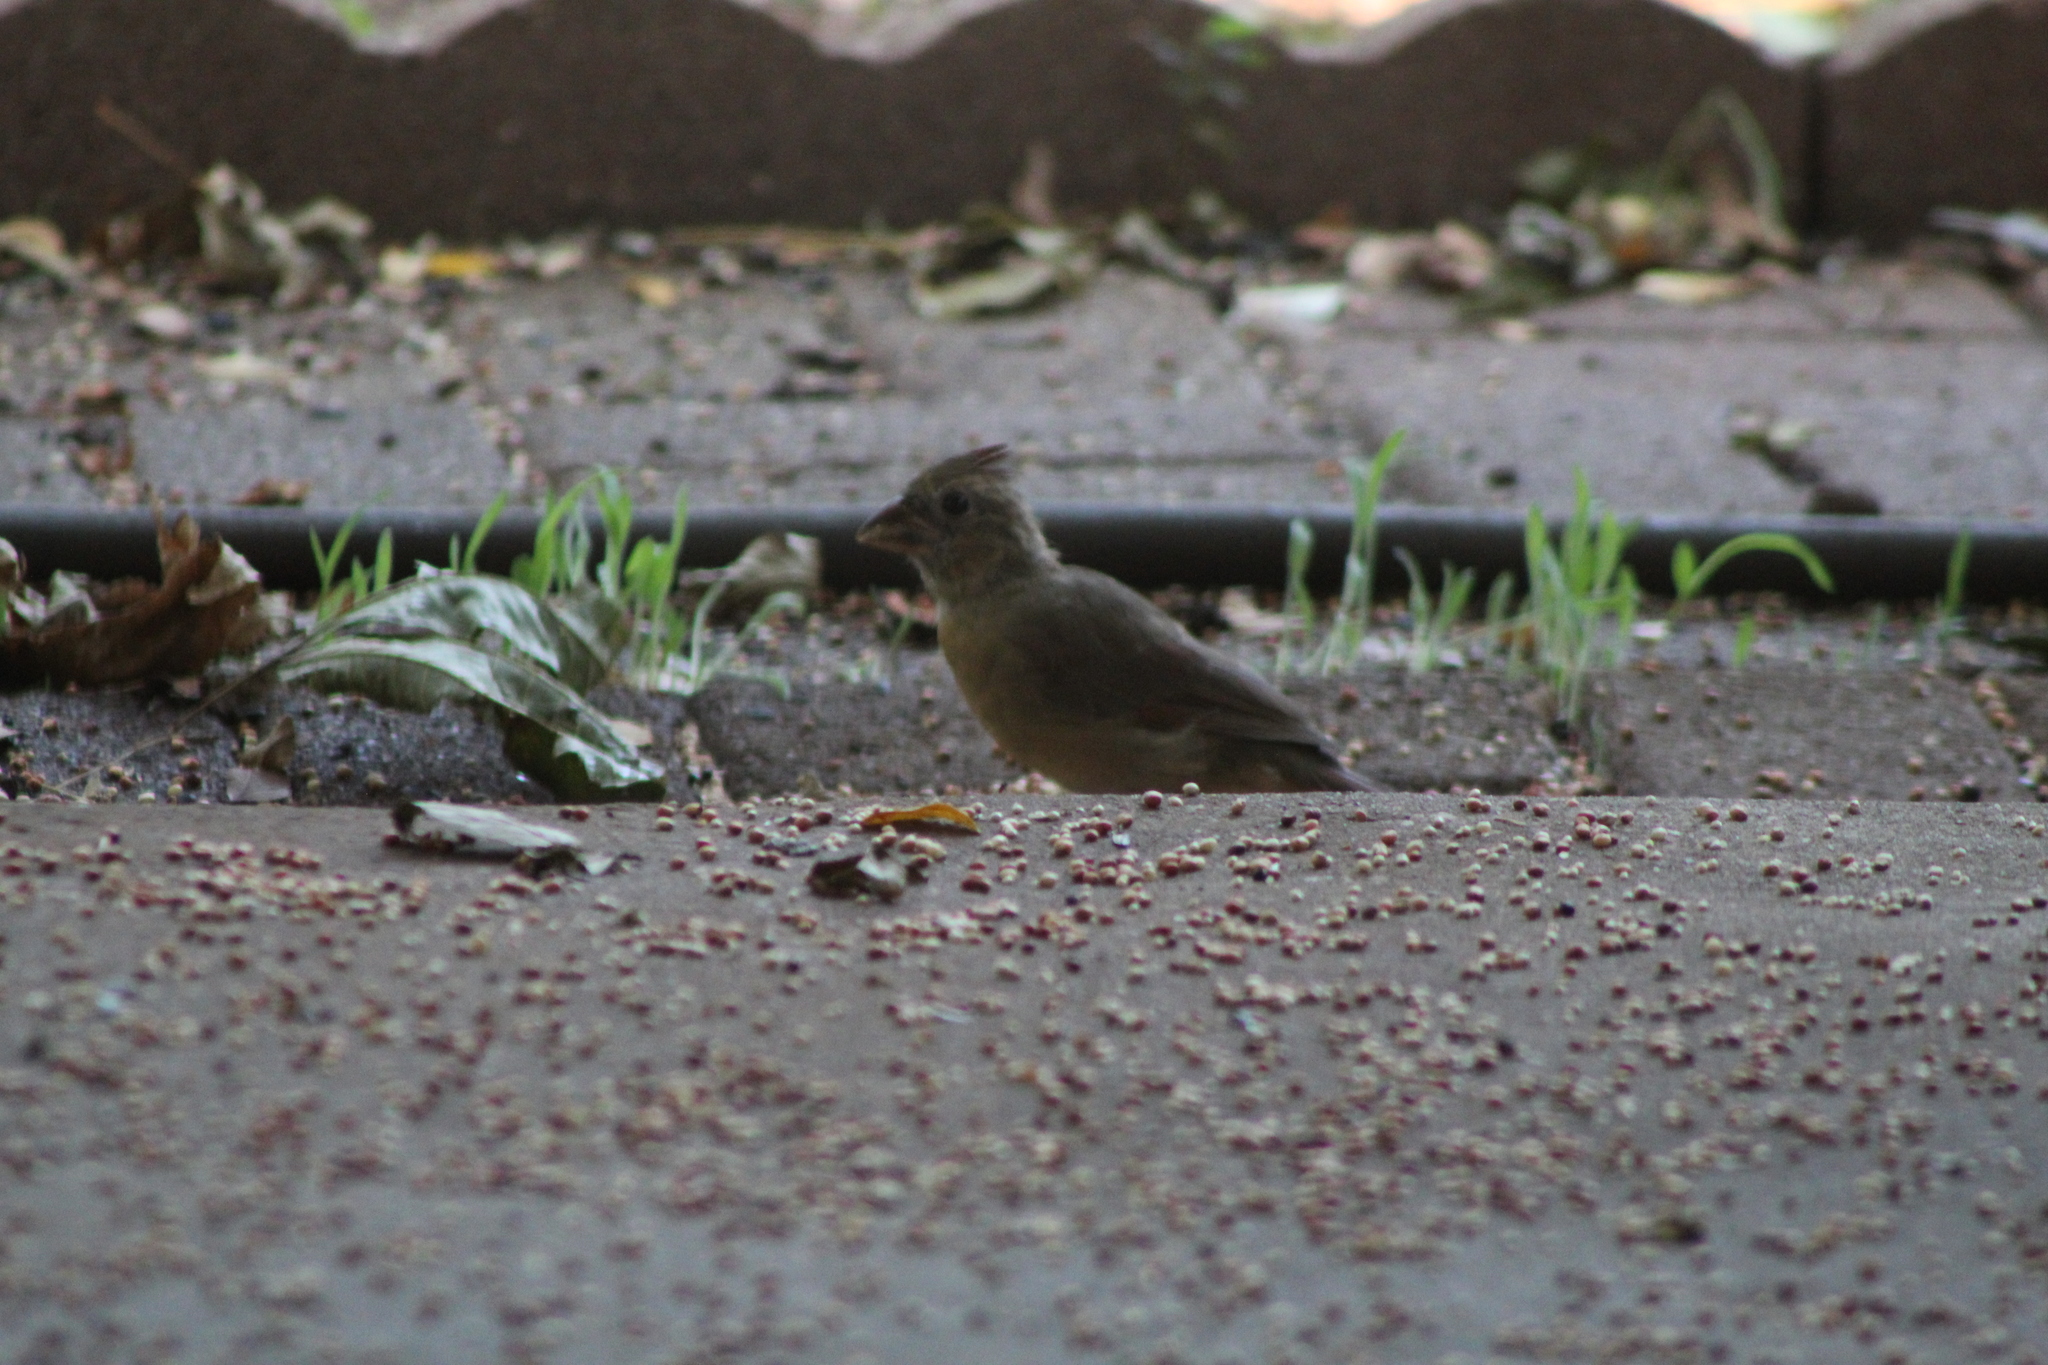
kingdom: Animalia
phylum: Chordata
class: Aves
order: Passeriformes
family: Cardinalidae
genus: Cardinalis
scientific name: Cardinalis cardinalis
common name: Northern cardinal
